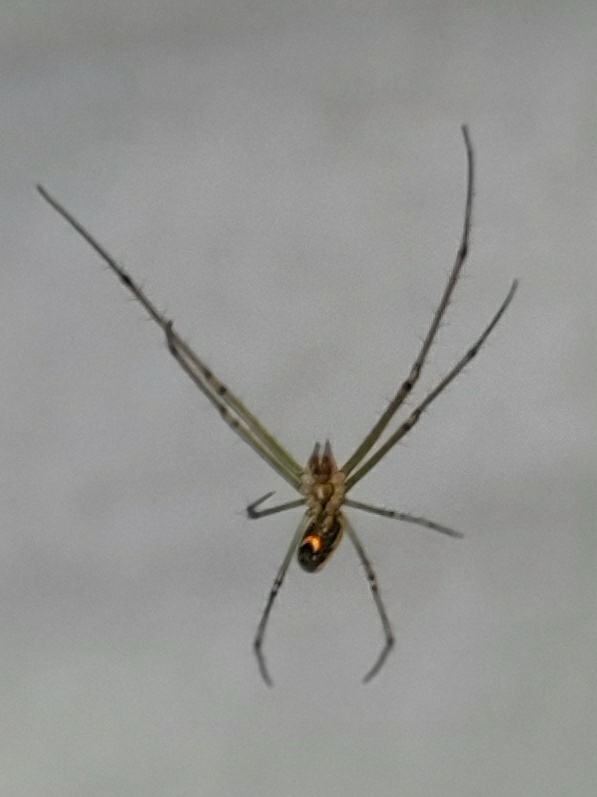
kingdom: Animalia
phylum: Arthropoda
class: Arachnida
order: Araneae
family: Tetragnathidae
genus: Leucauge
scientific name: Leucauge venusta
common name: Longjawed orb weavers
